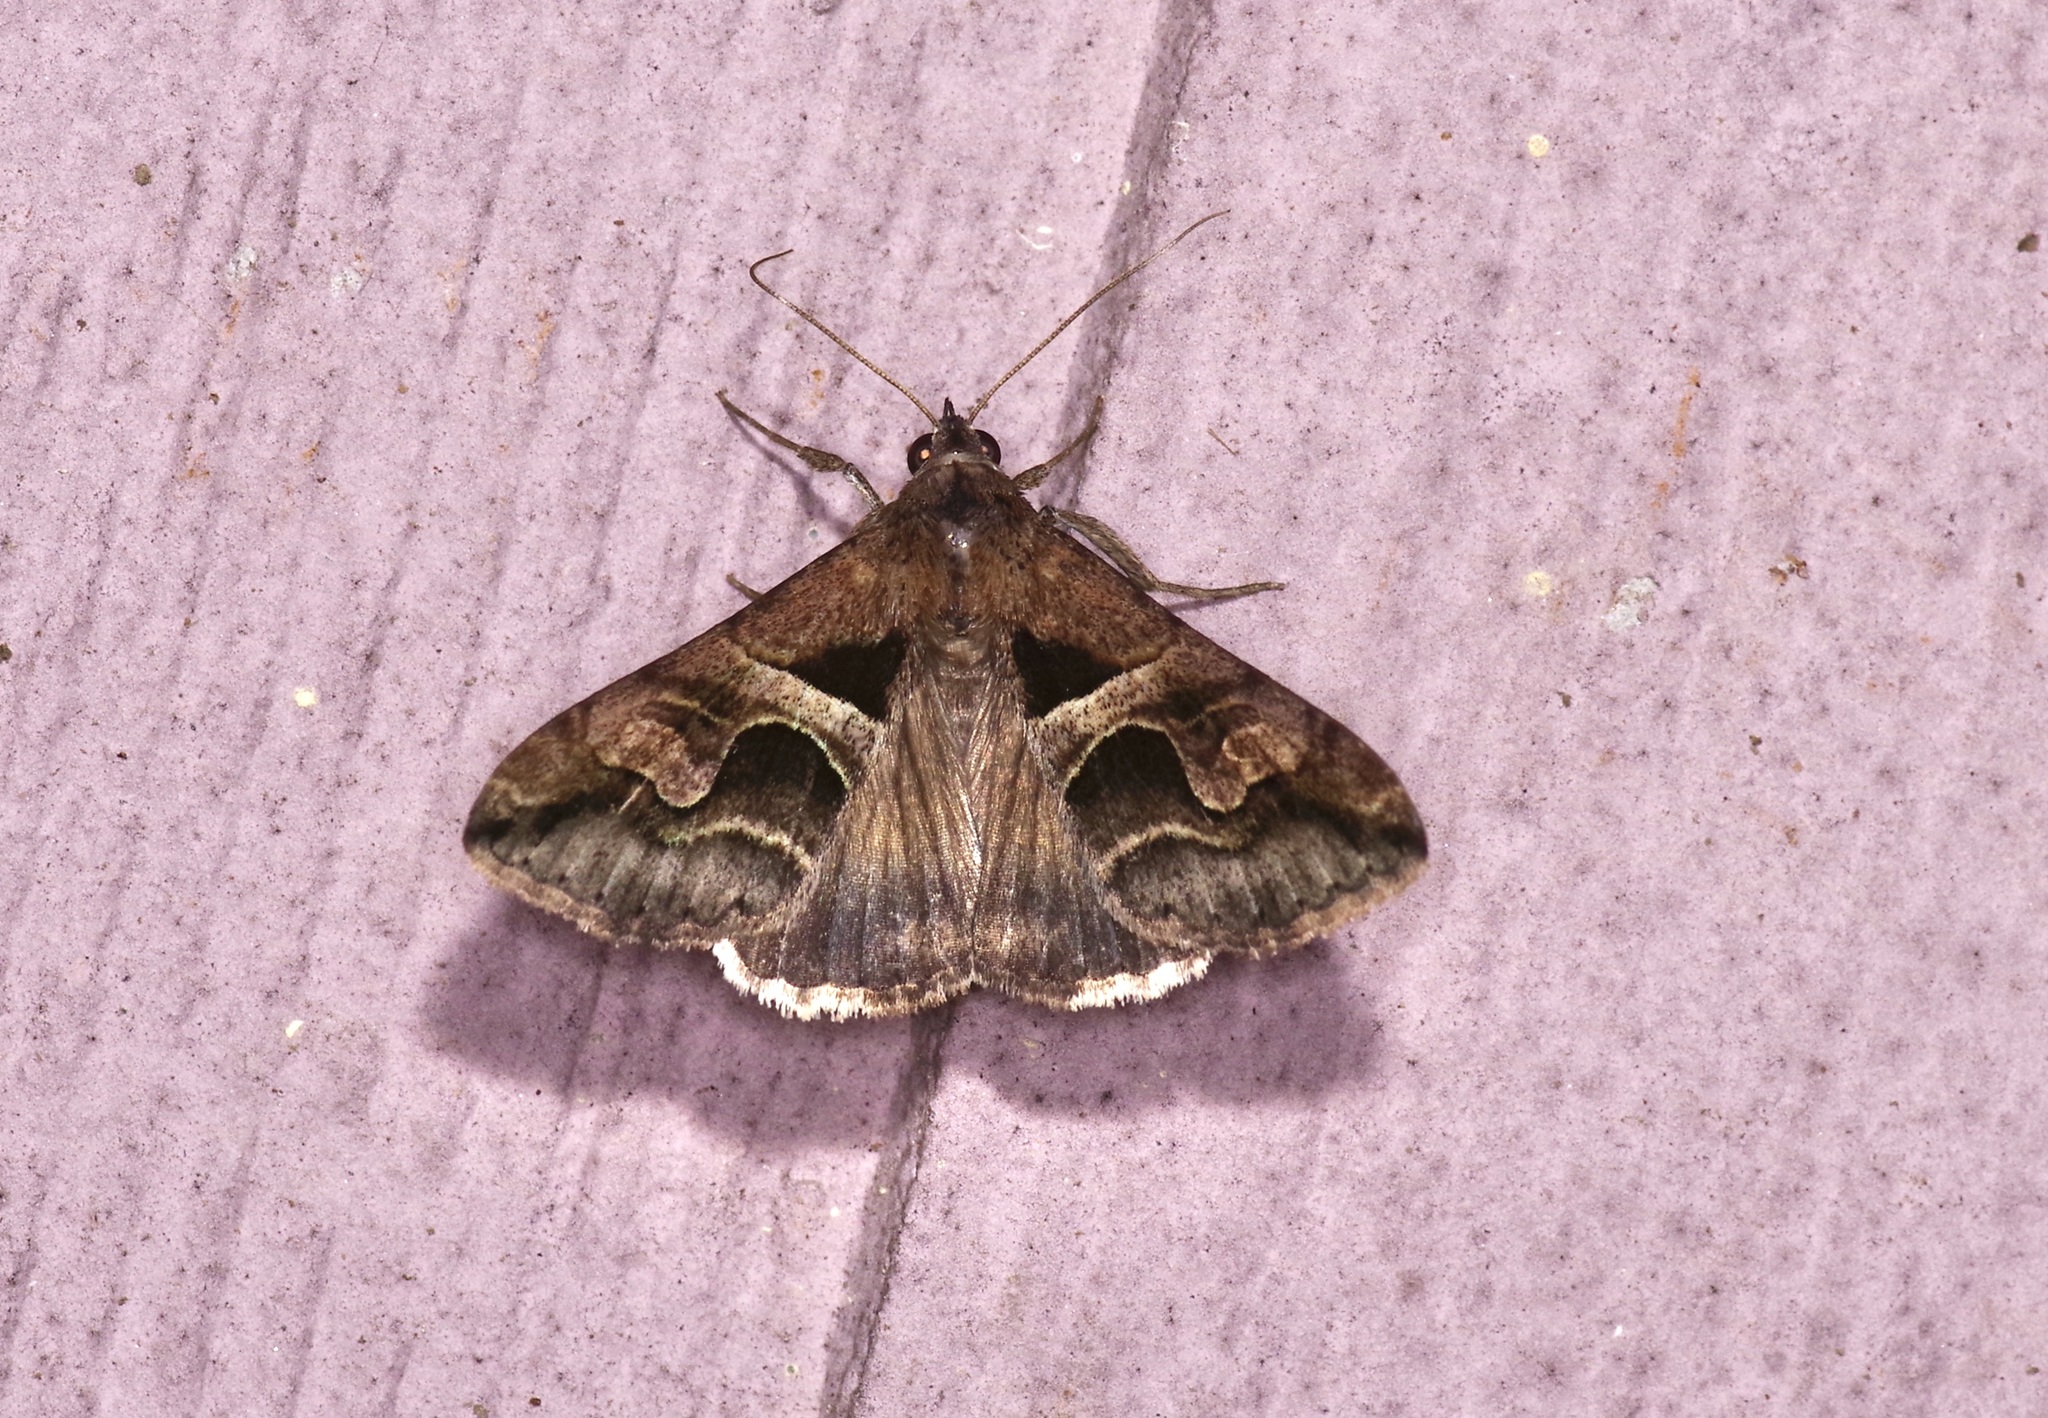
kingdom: Animalia
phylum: Arthropoda
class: Insecta
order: Lepidoptera
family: Erebidae
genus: Melipotis
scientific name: Melipotis cellaris
